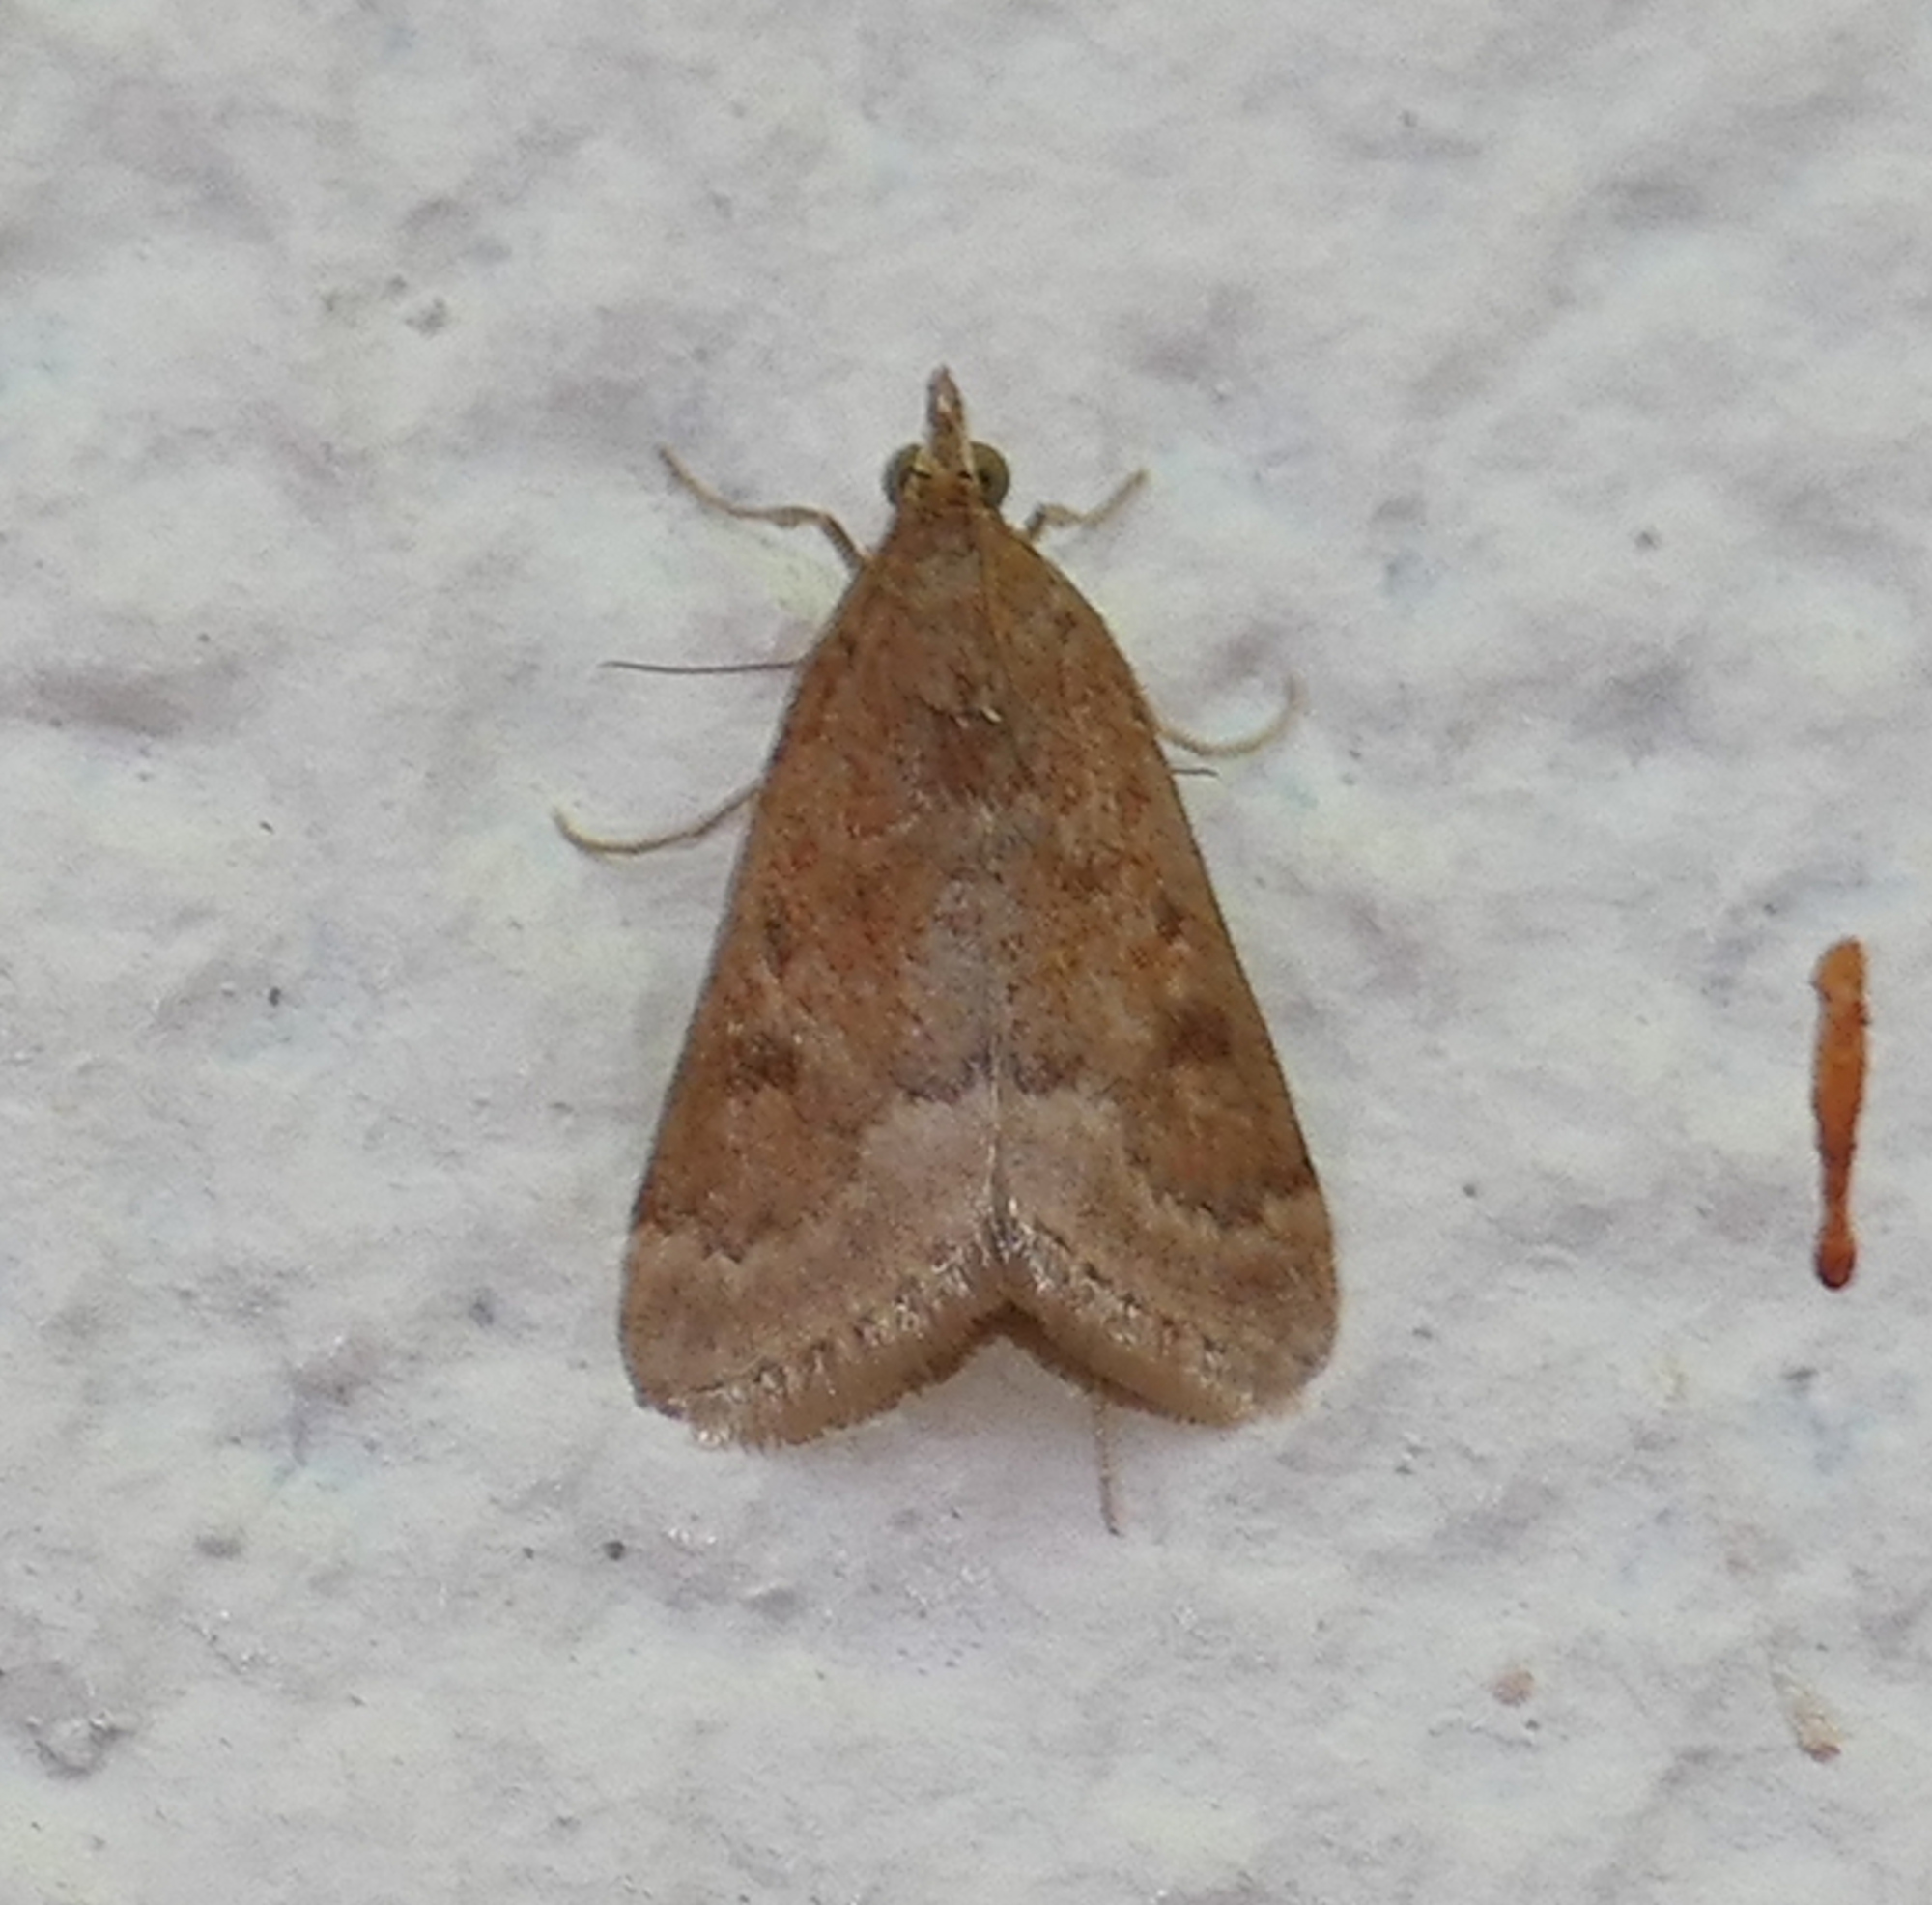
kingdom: Animalia
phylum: Arthropoda
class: Insecta
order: Lepidoptera
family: Crambidae
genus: Achyra
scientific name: Achyra rantalis
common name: Garden webworm
